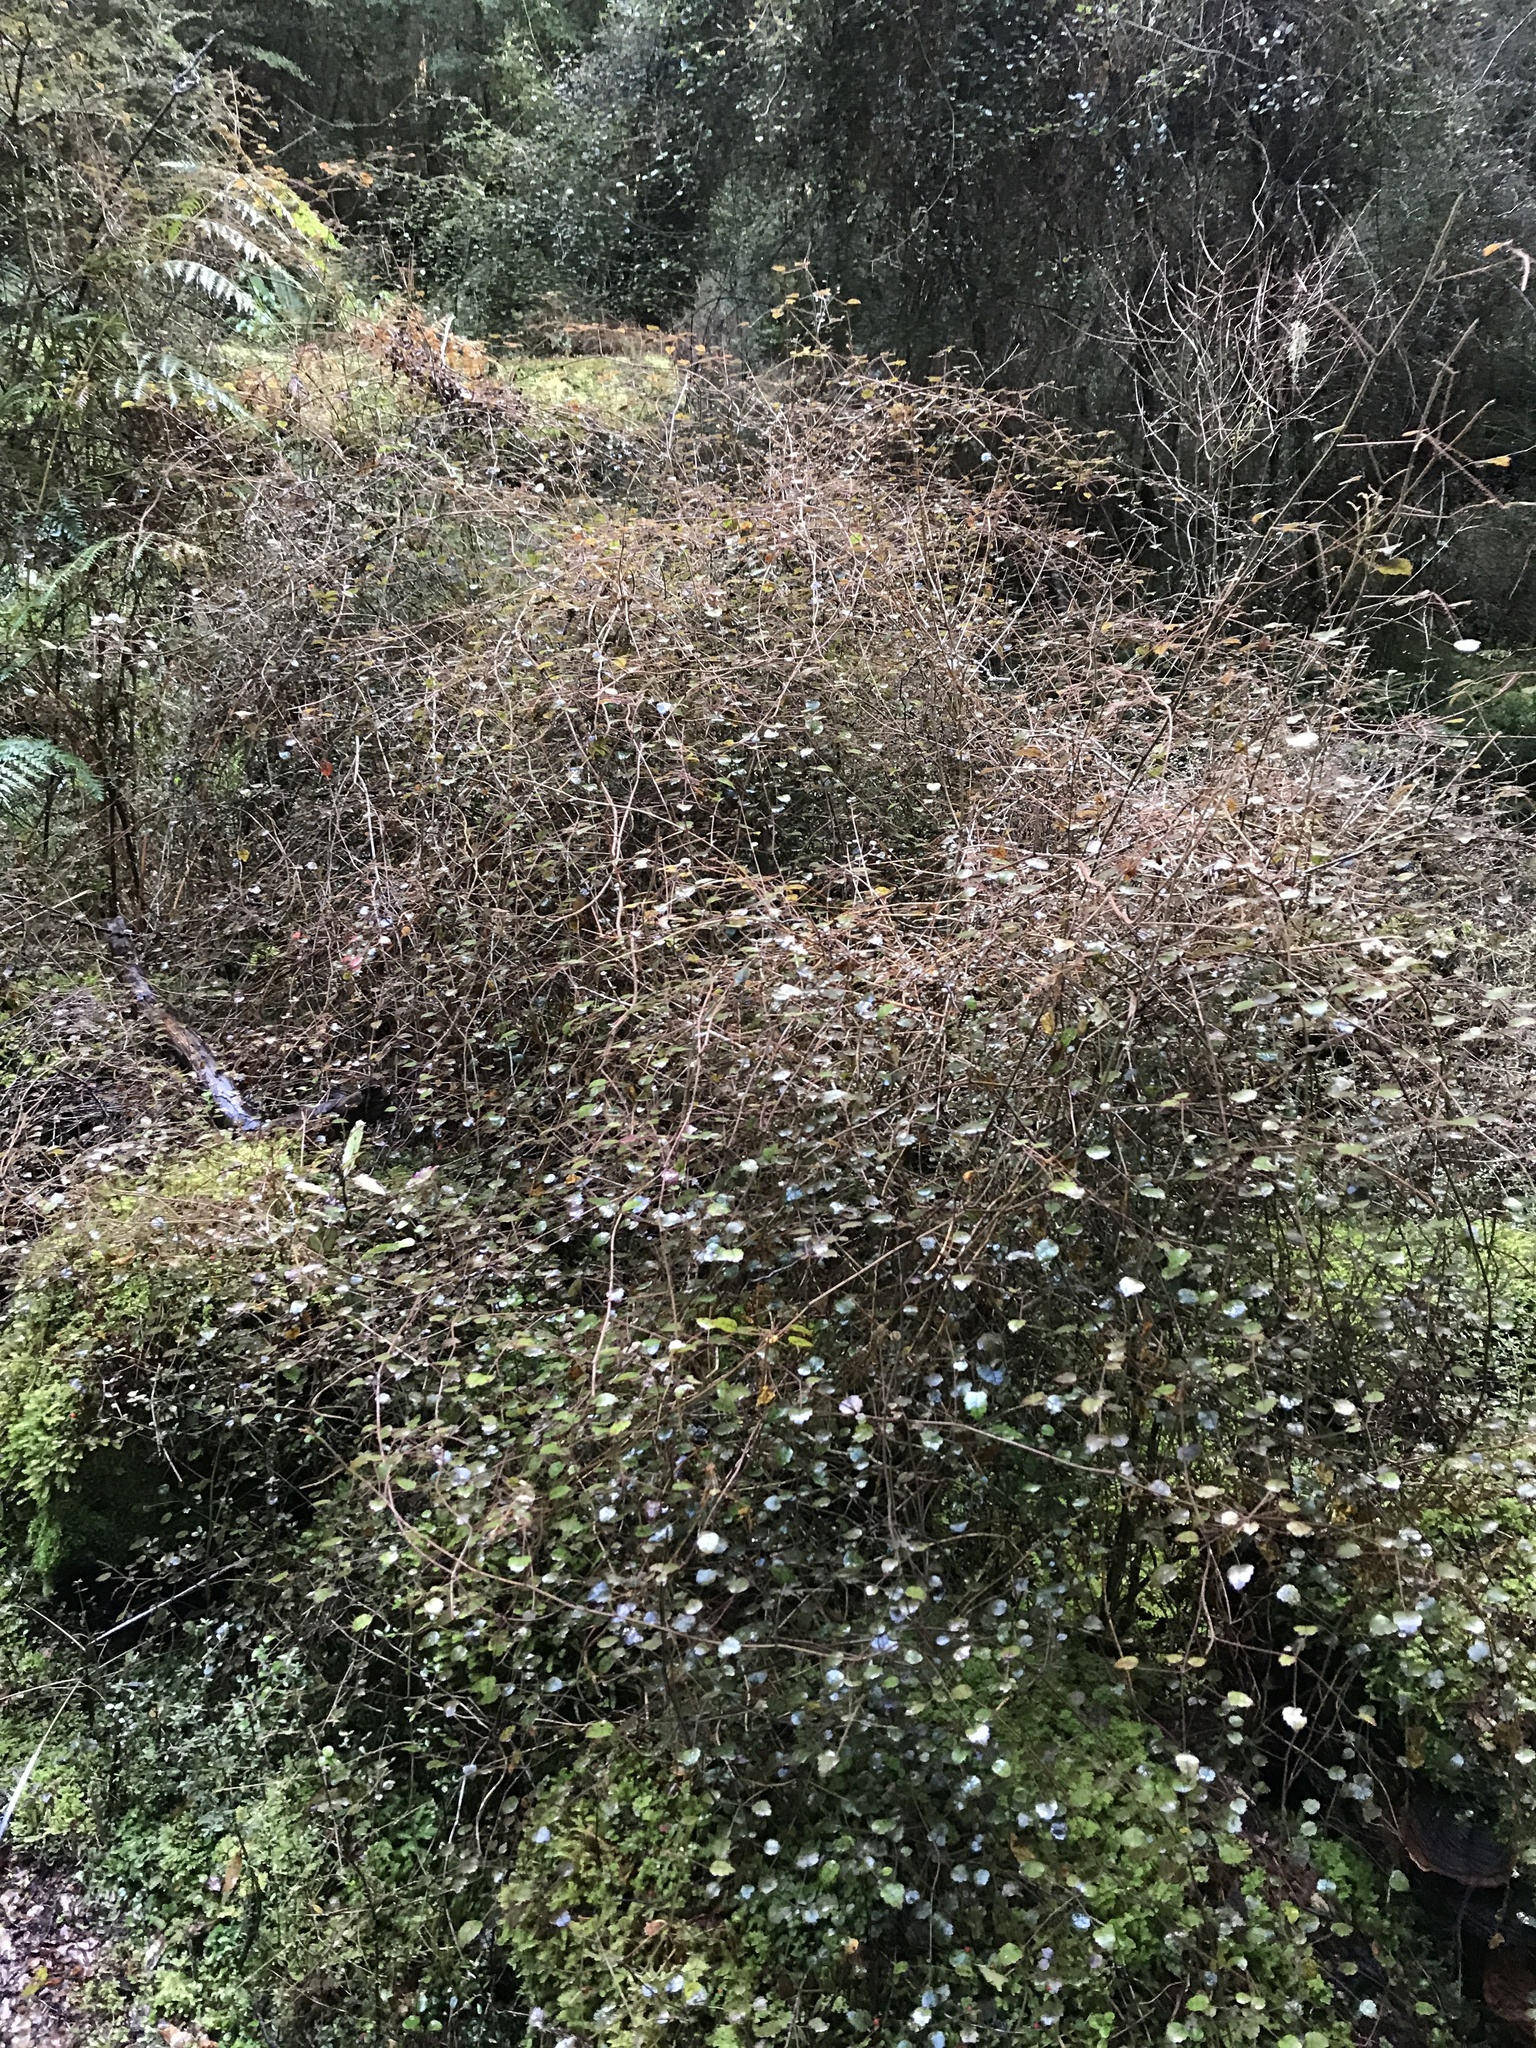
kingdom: Plantae
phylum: Tracheophyta
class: Magnoliopsida
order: Rosales
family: Rosaceae
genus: Rubus
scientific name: Rubus australis
